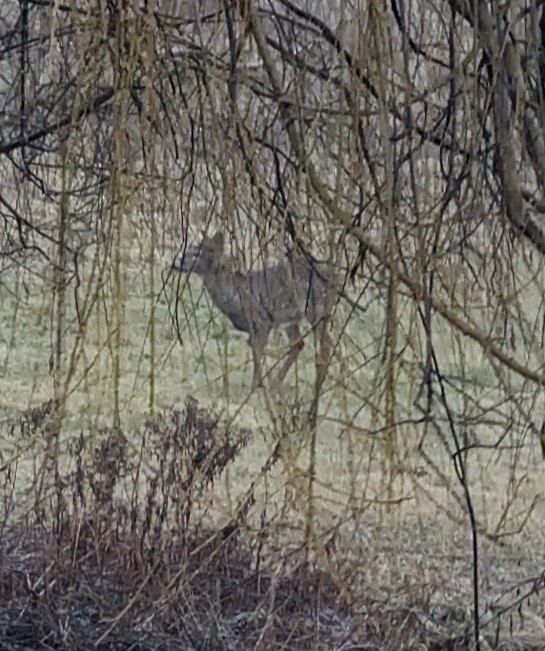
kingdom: Animalia
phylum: Chordata
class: Mammalia
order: Artiodactyla
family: Cervidae
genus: Odocoileus
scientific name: Odocoileus virginianus
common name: White-tailed deer
